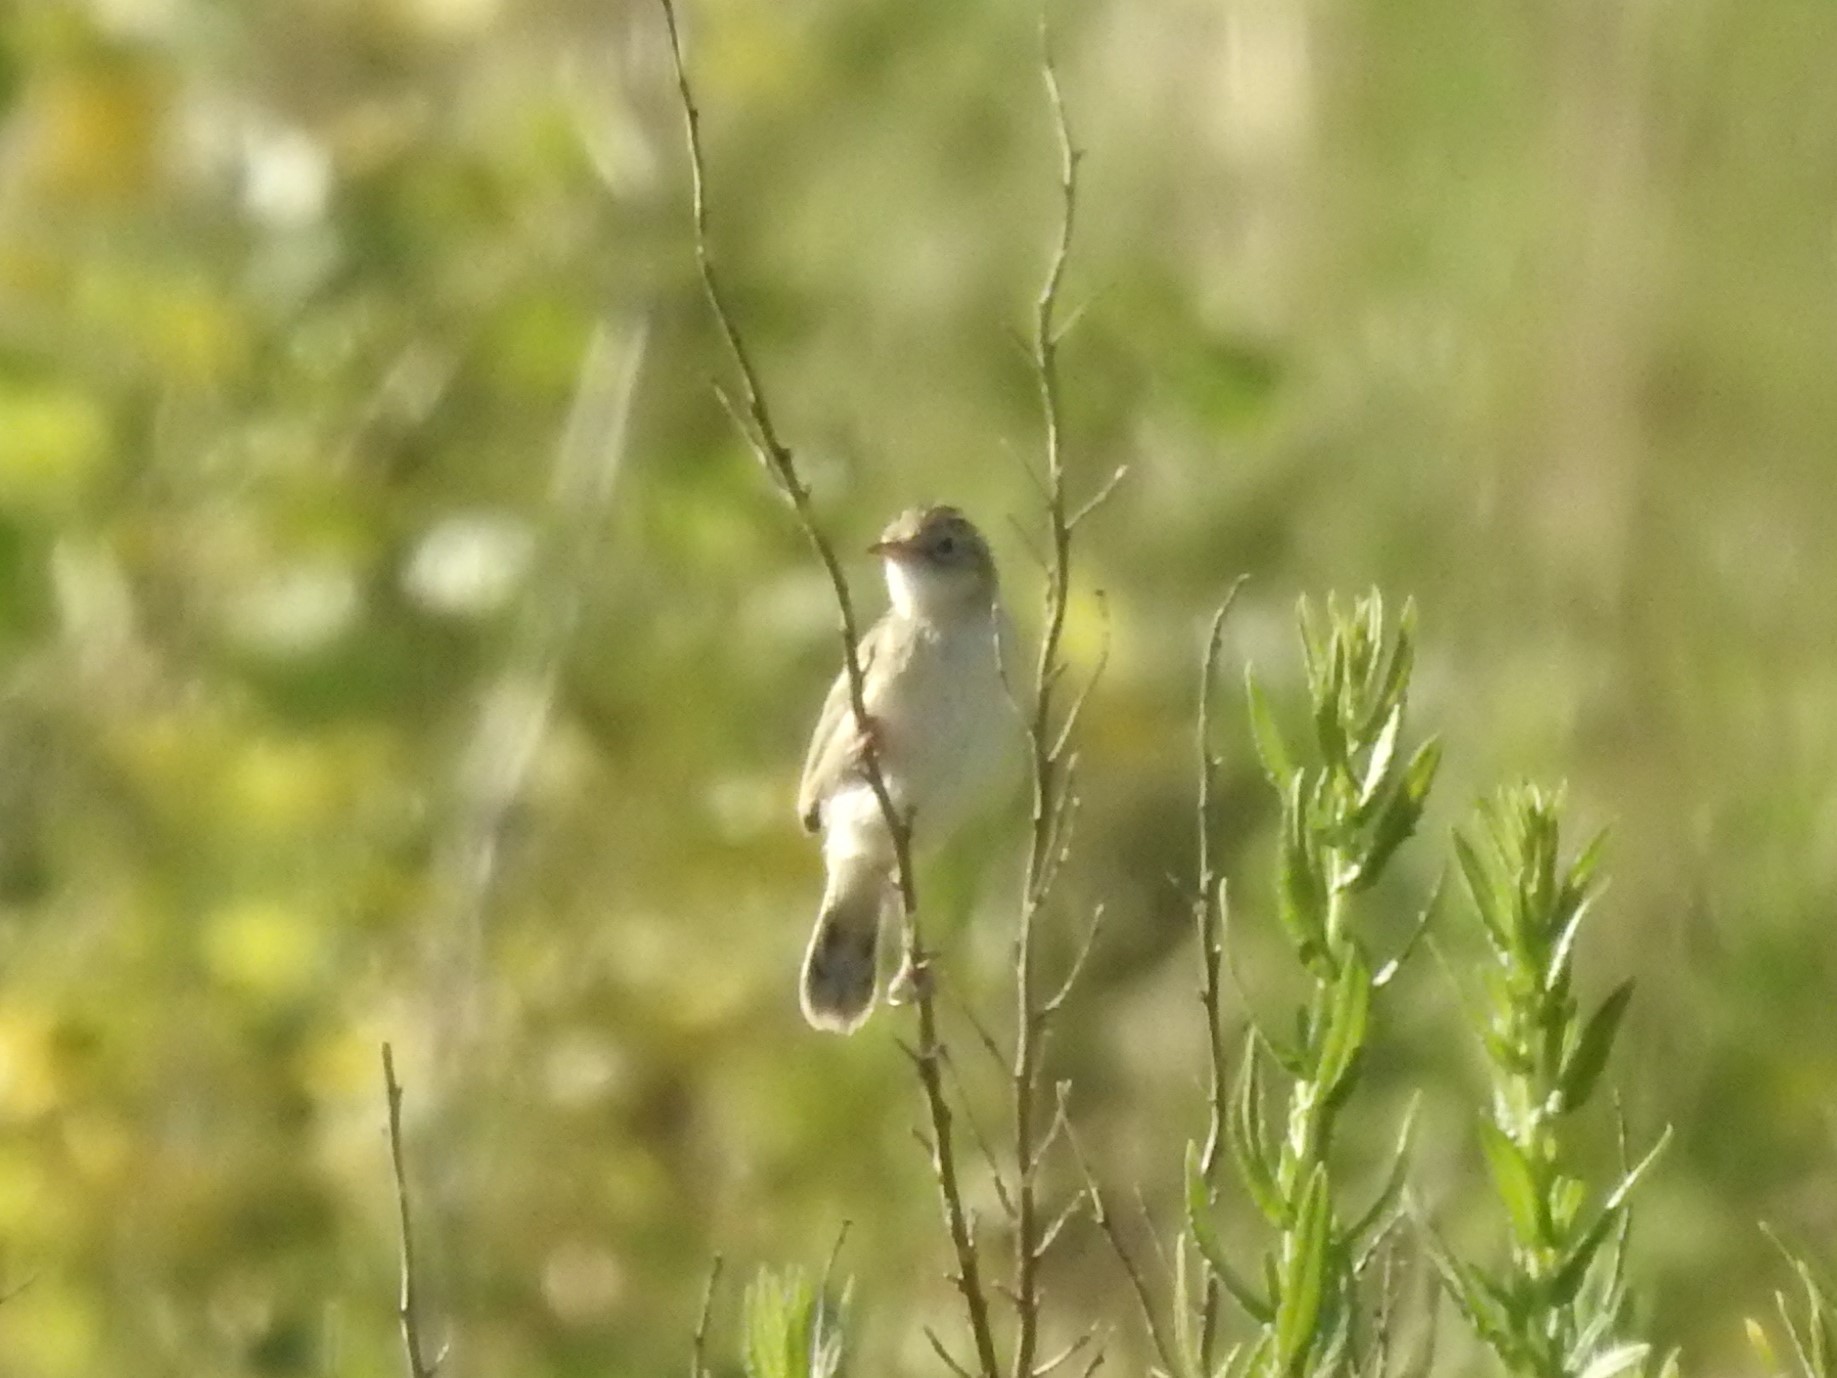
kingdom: Animalia
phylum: Chordata
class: Aves
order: Passeriformes
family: Cisticolidae
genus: Cisticola
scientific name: Cisticola juncidis
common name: Zitting cisticola
